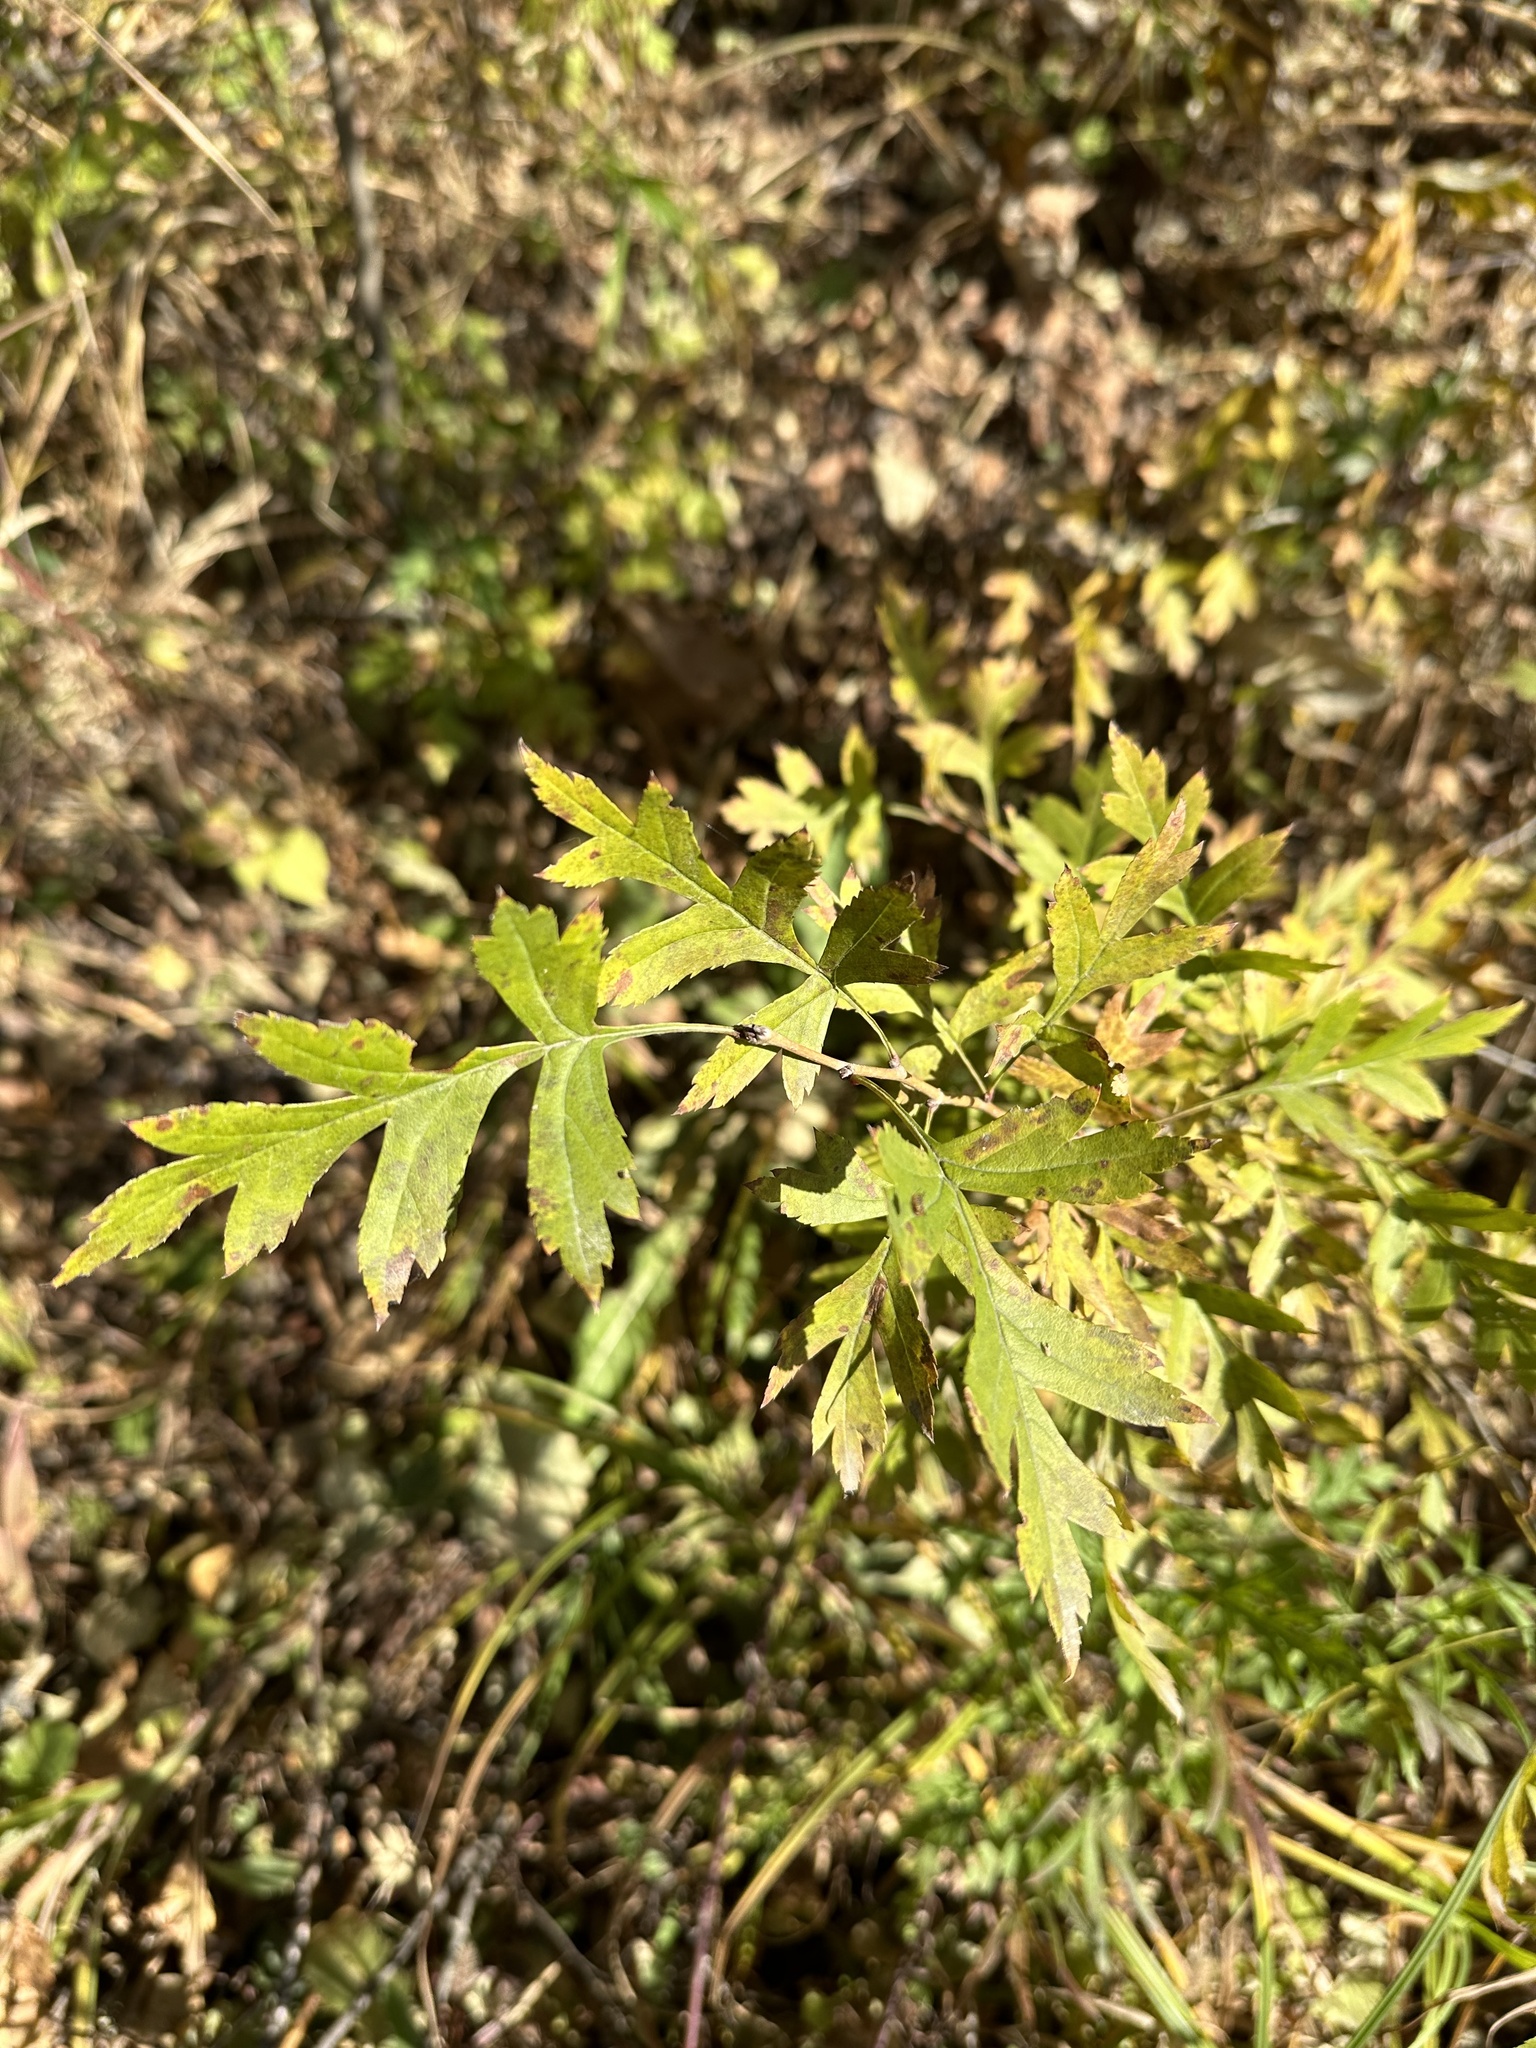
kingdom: Plantae
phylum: Tracheophyta
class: Magnoliopsida
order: Rosales
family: Rosaceae
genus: Crataegus
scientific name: Crataegus pinnatifida
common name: Chinese haw
